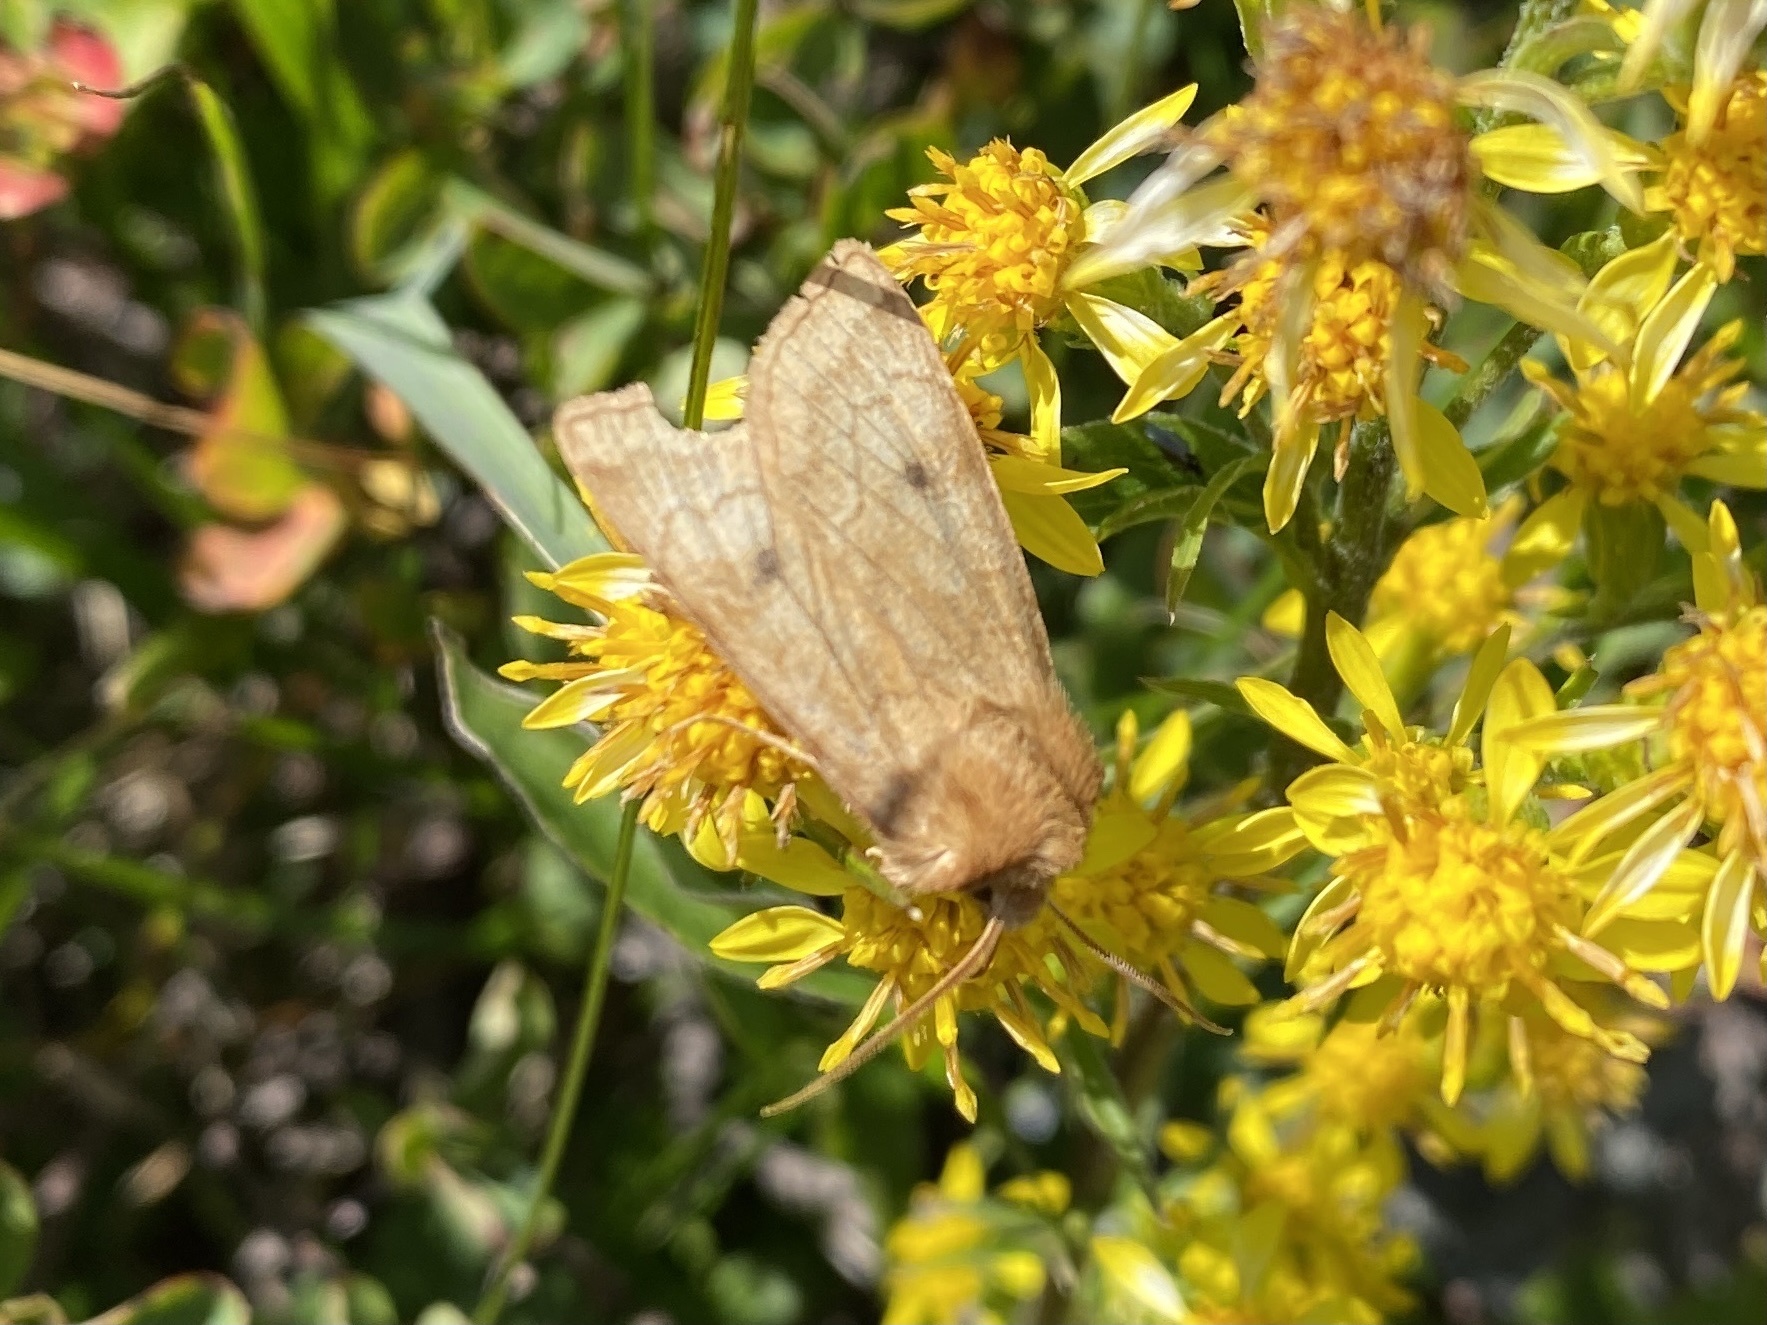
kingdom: Animalia
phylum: Arthropoda
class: Insecta
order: Lepidoptera
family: Noctuidae
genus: Xestia
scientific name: Xestia ochreago
